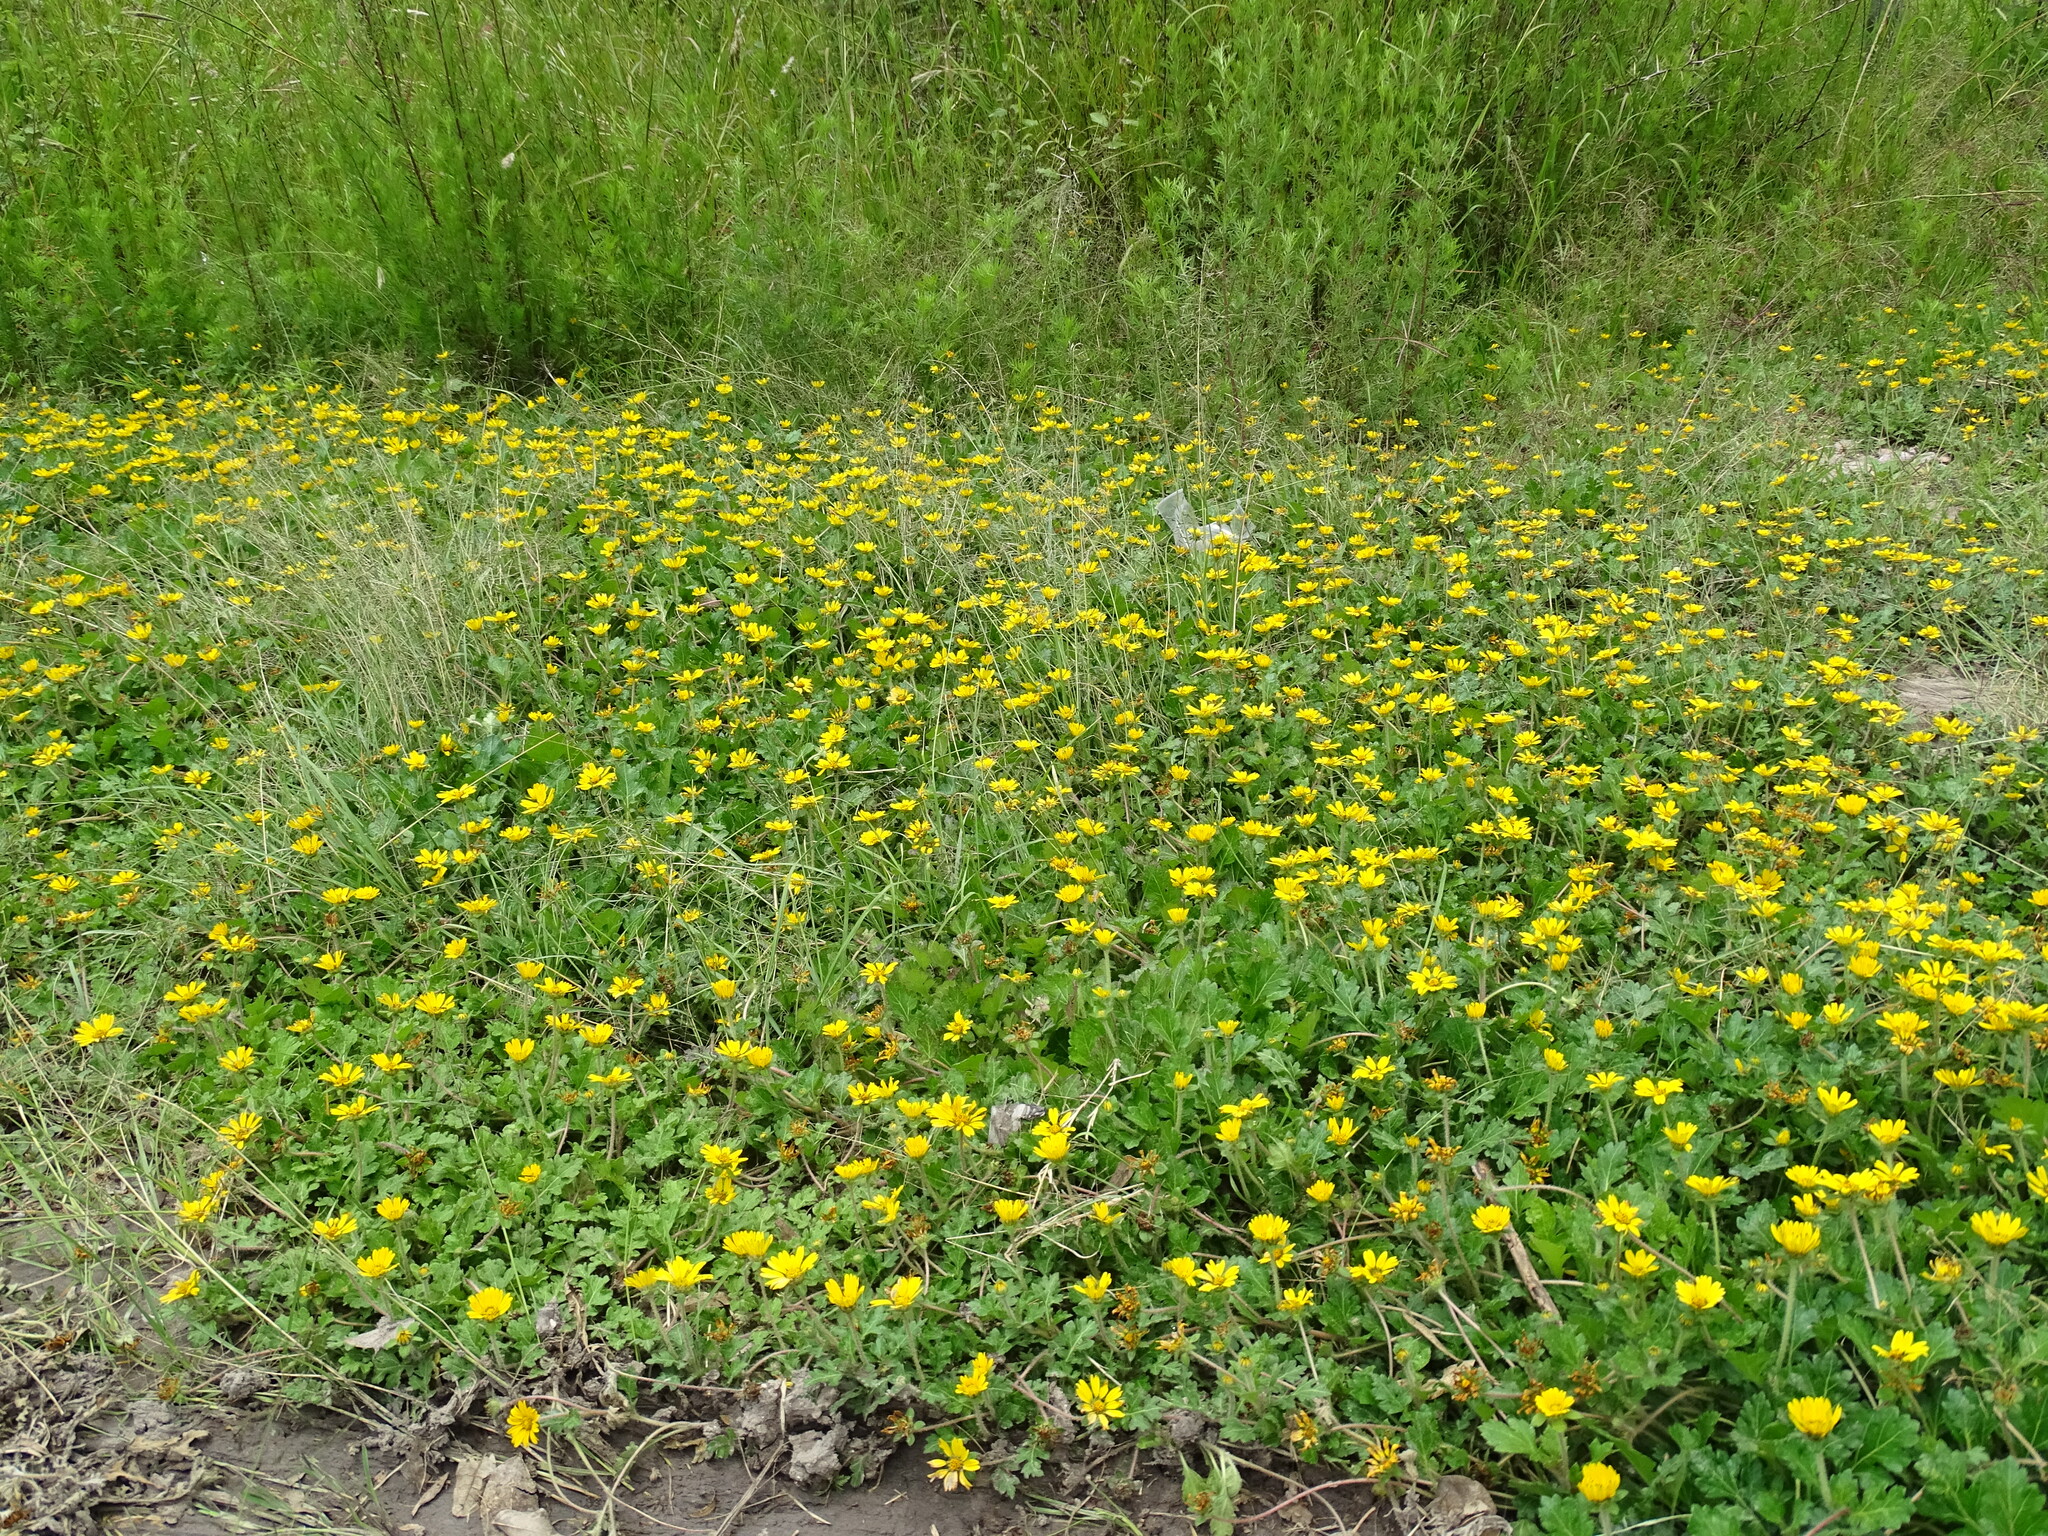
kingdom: Plantae
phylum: Tracheophyta
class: Magnoliopsida
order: Asterales
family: Asteraceae
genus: Dugesia
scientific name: Dugesia mexicana
